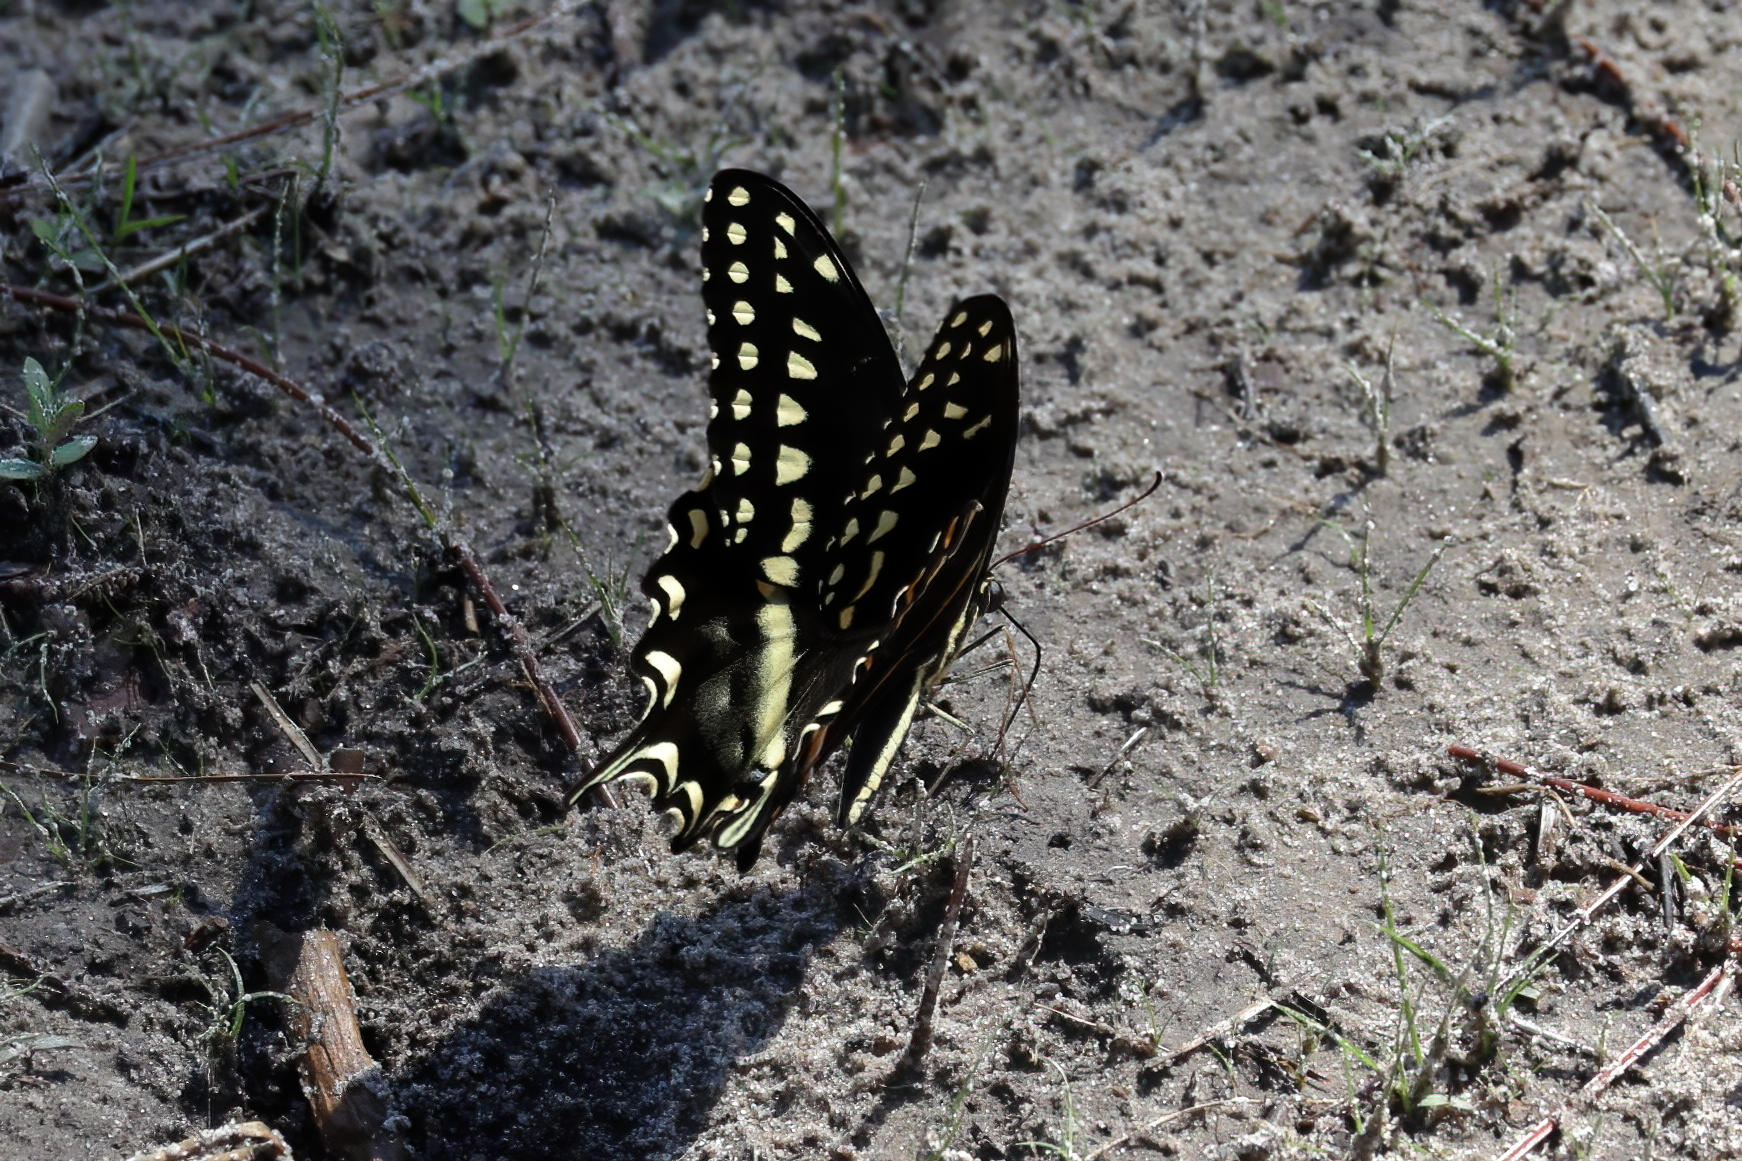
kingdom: Animalia
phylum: Arthropoda
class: Insecta
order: Lepidoptera
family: Papilionidae
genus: Papilio
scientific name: Papilio palamedes
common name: Palamedes swallowtail
